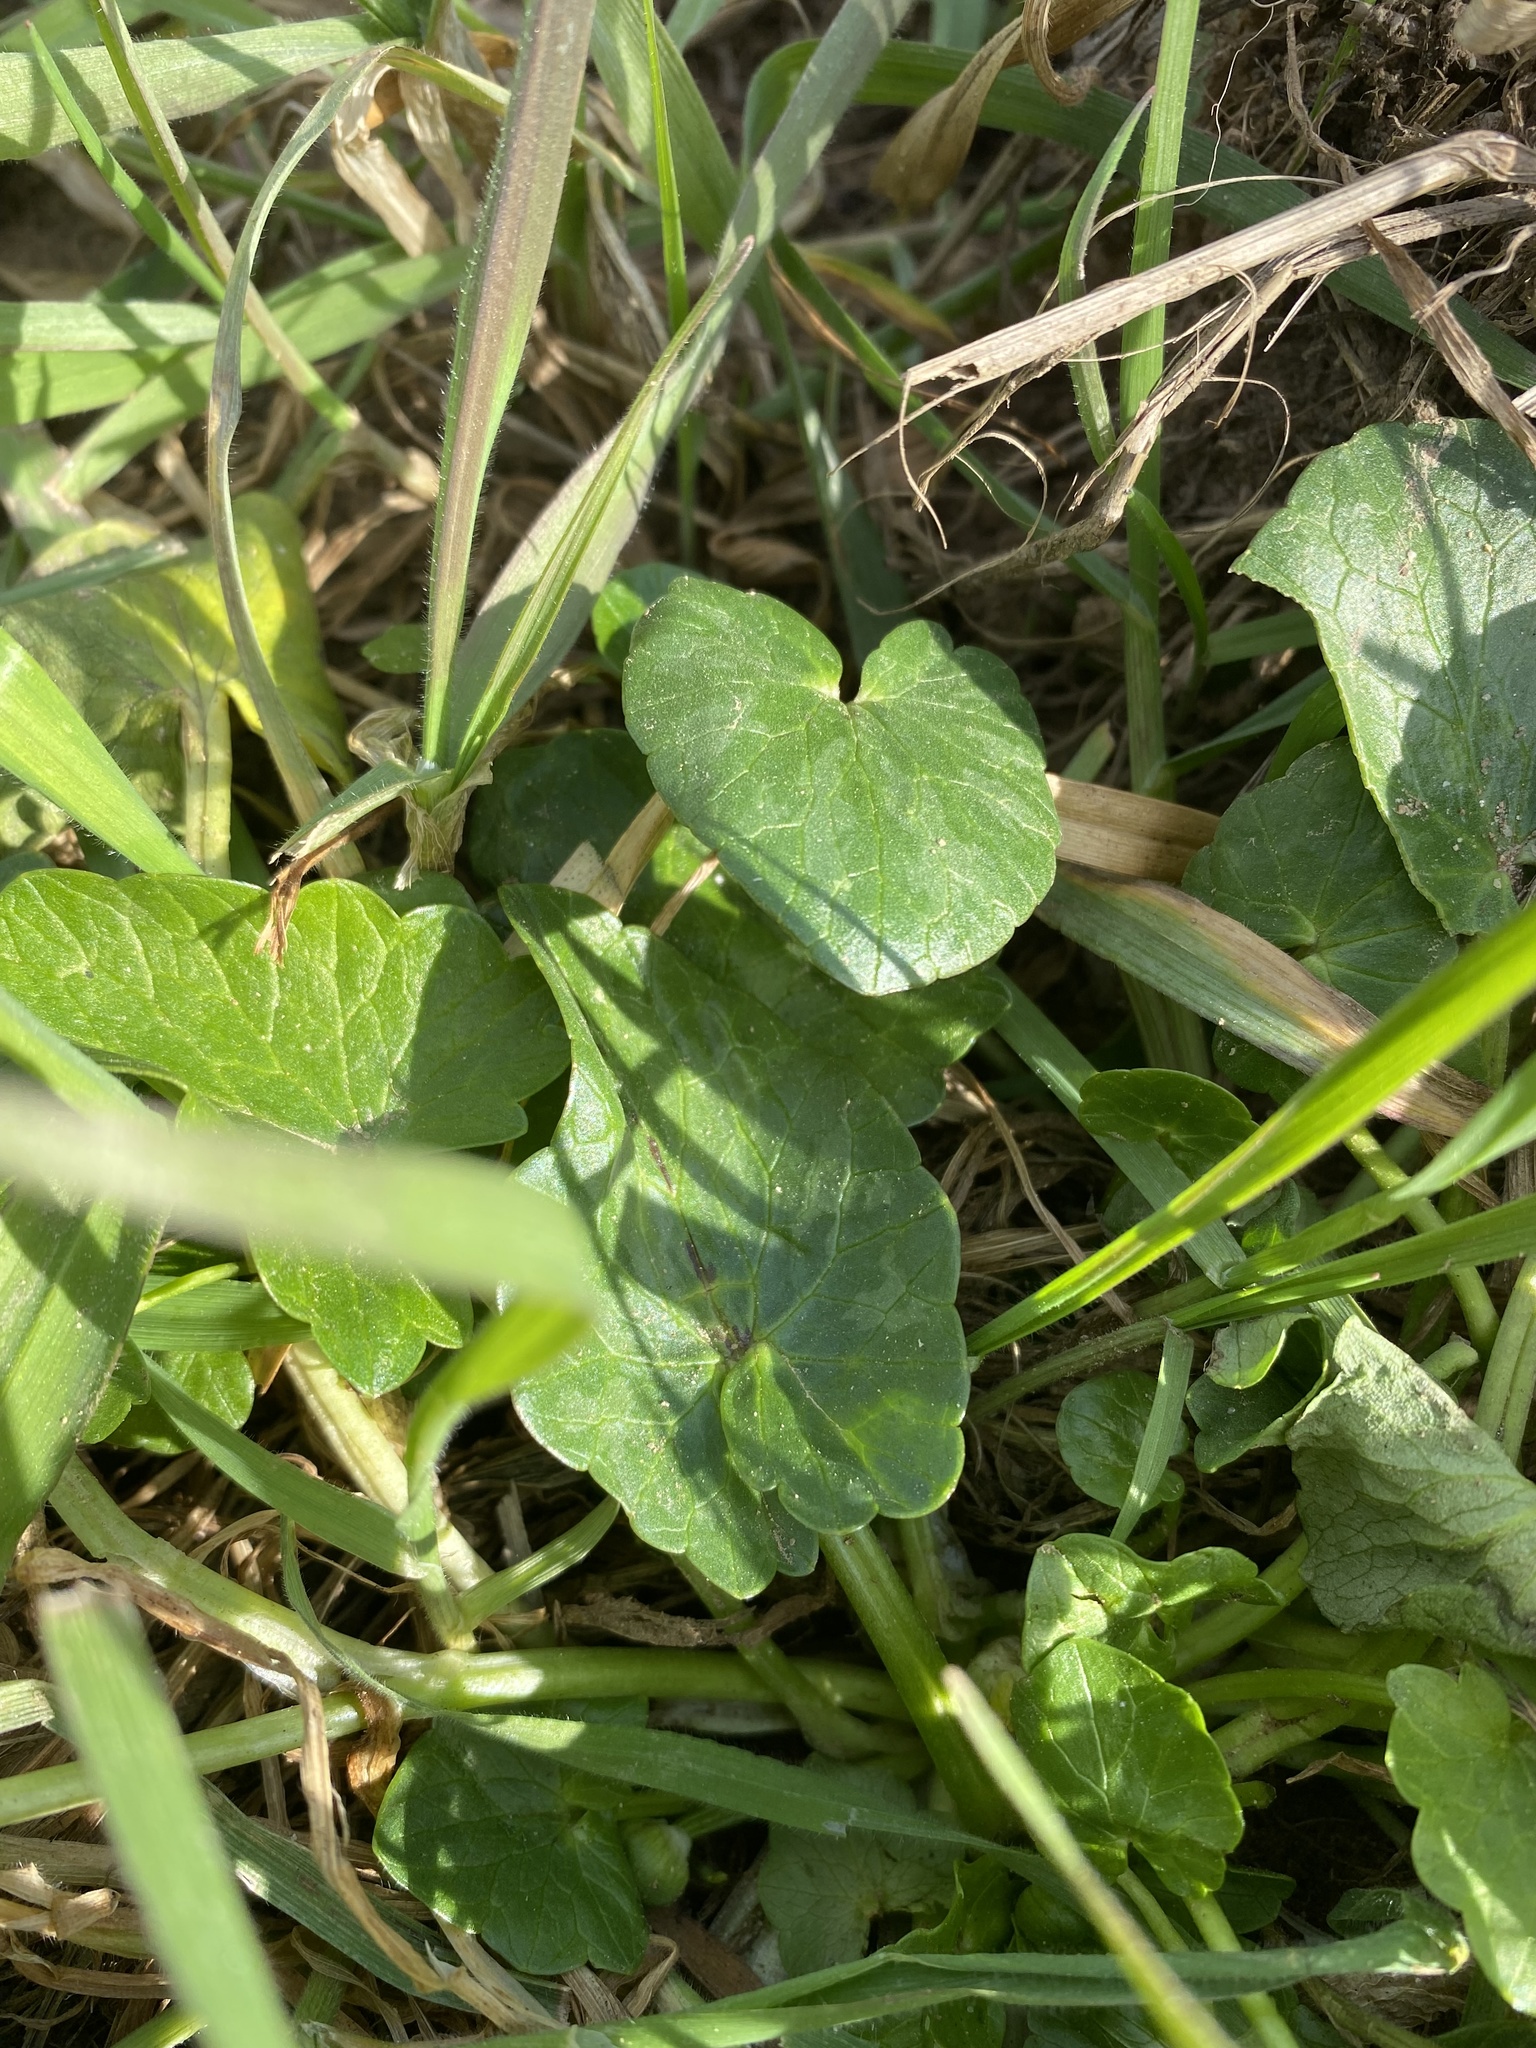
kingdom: Plantae
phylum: Tracheophyta
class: Magnoliopsida
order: Ranunculales
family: Ranunculaceae
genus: Ficaria
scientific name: Ficaria verna
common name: Lesser celandine
